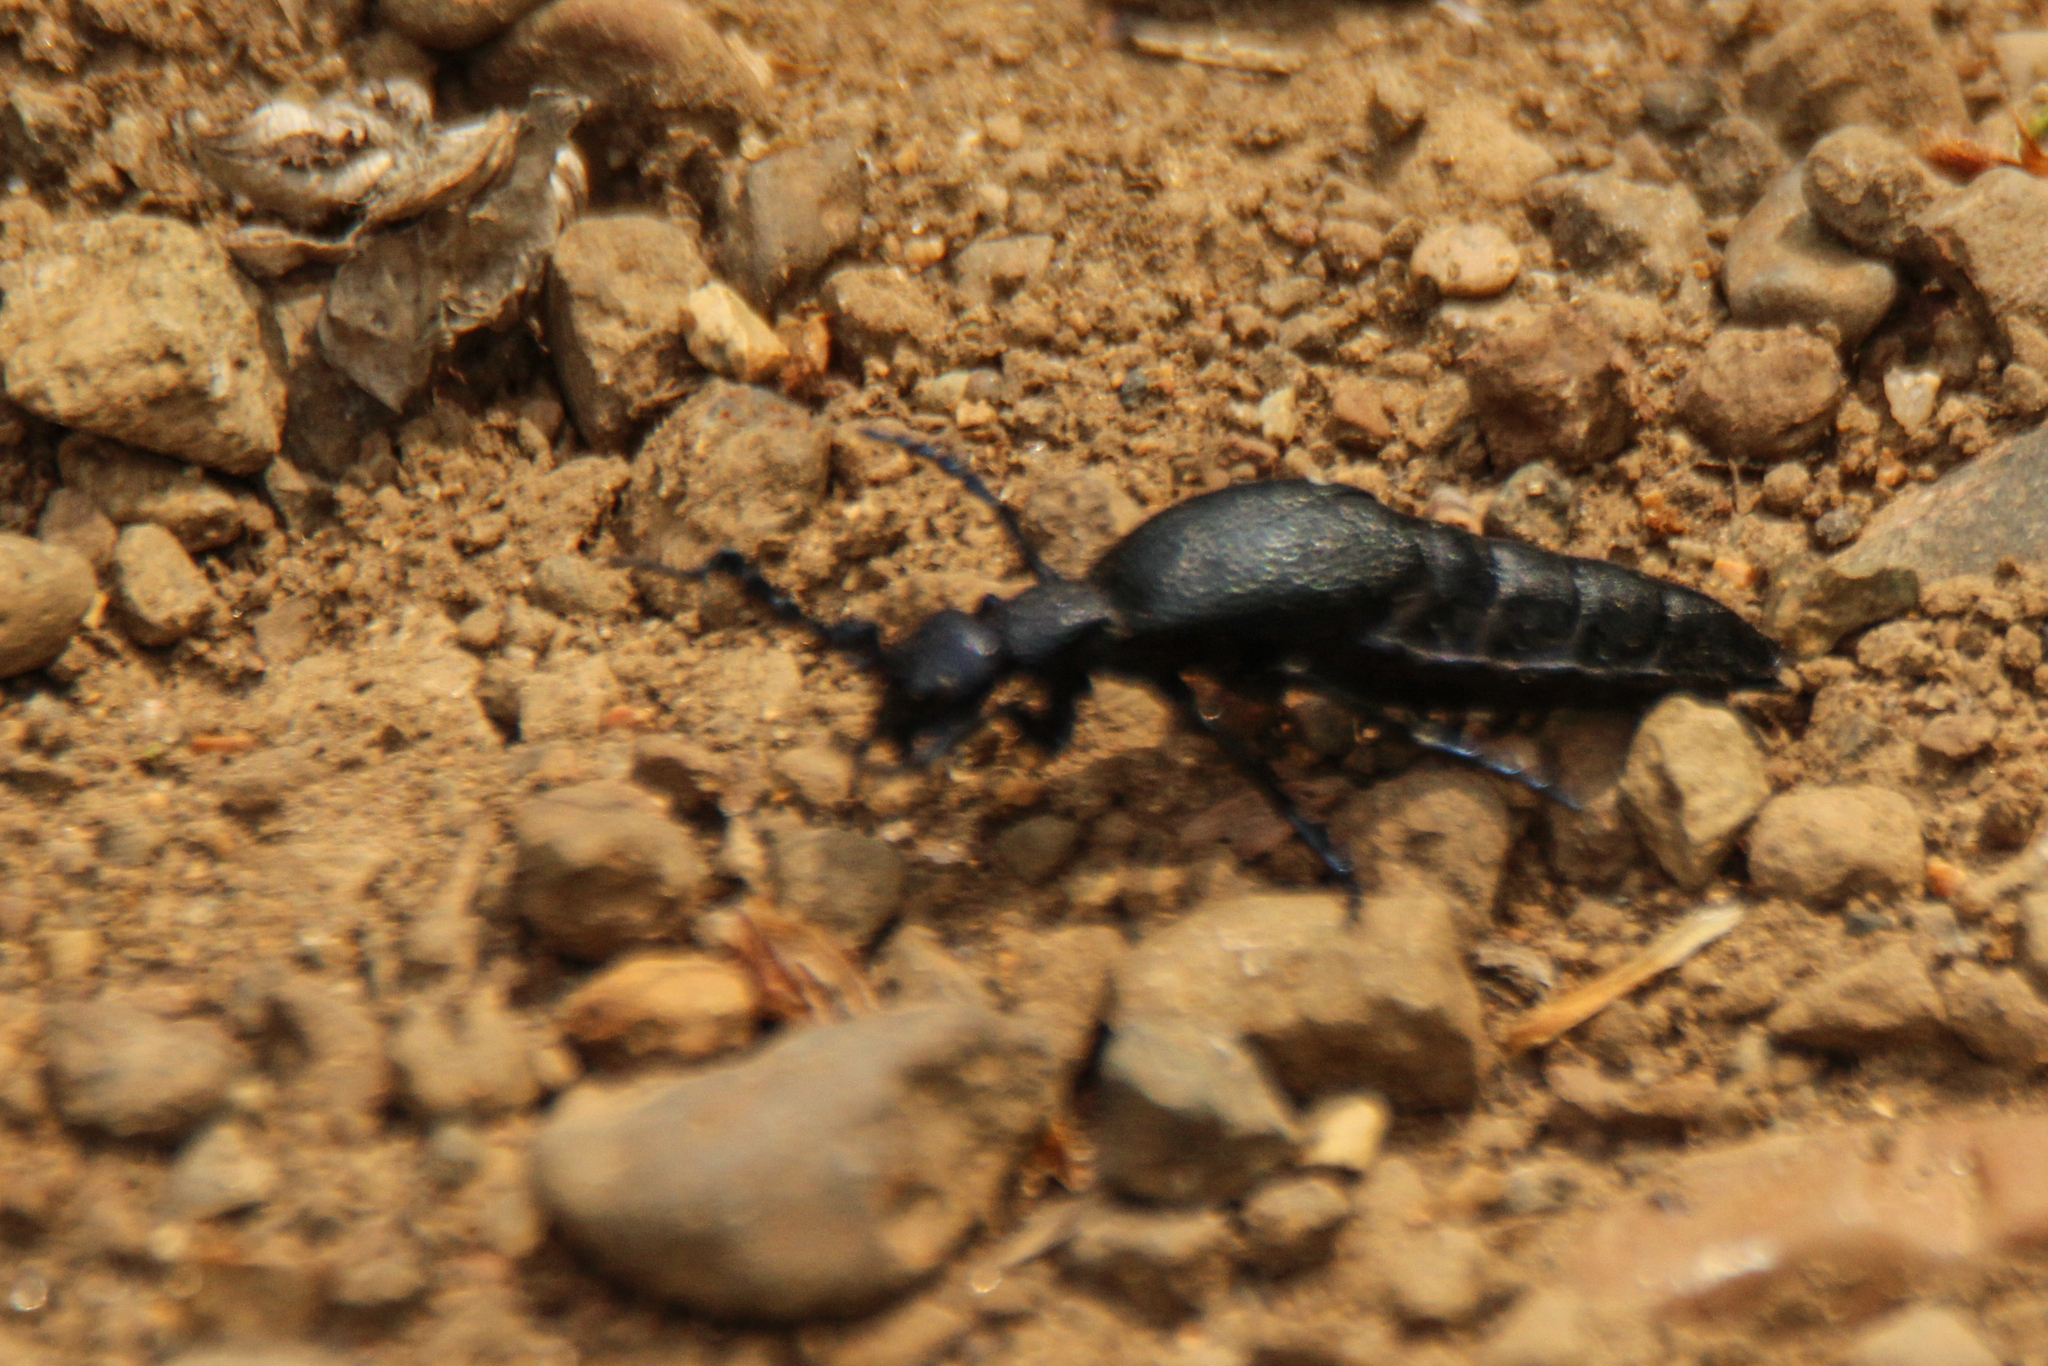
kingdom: Animalia
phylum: Arthropoda
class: Insecta
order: Coleoptera
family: Meloidae
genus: Meloe
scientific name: Meloe proscarabaeus
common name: Black oil-beetle
